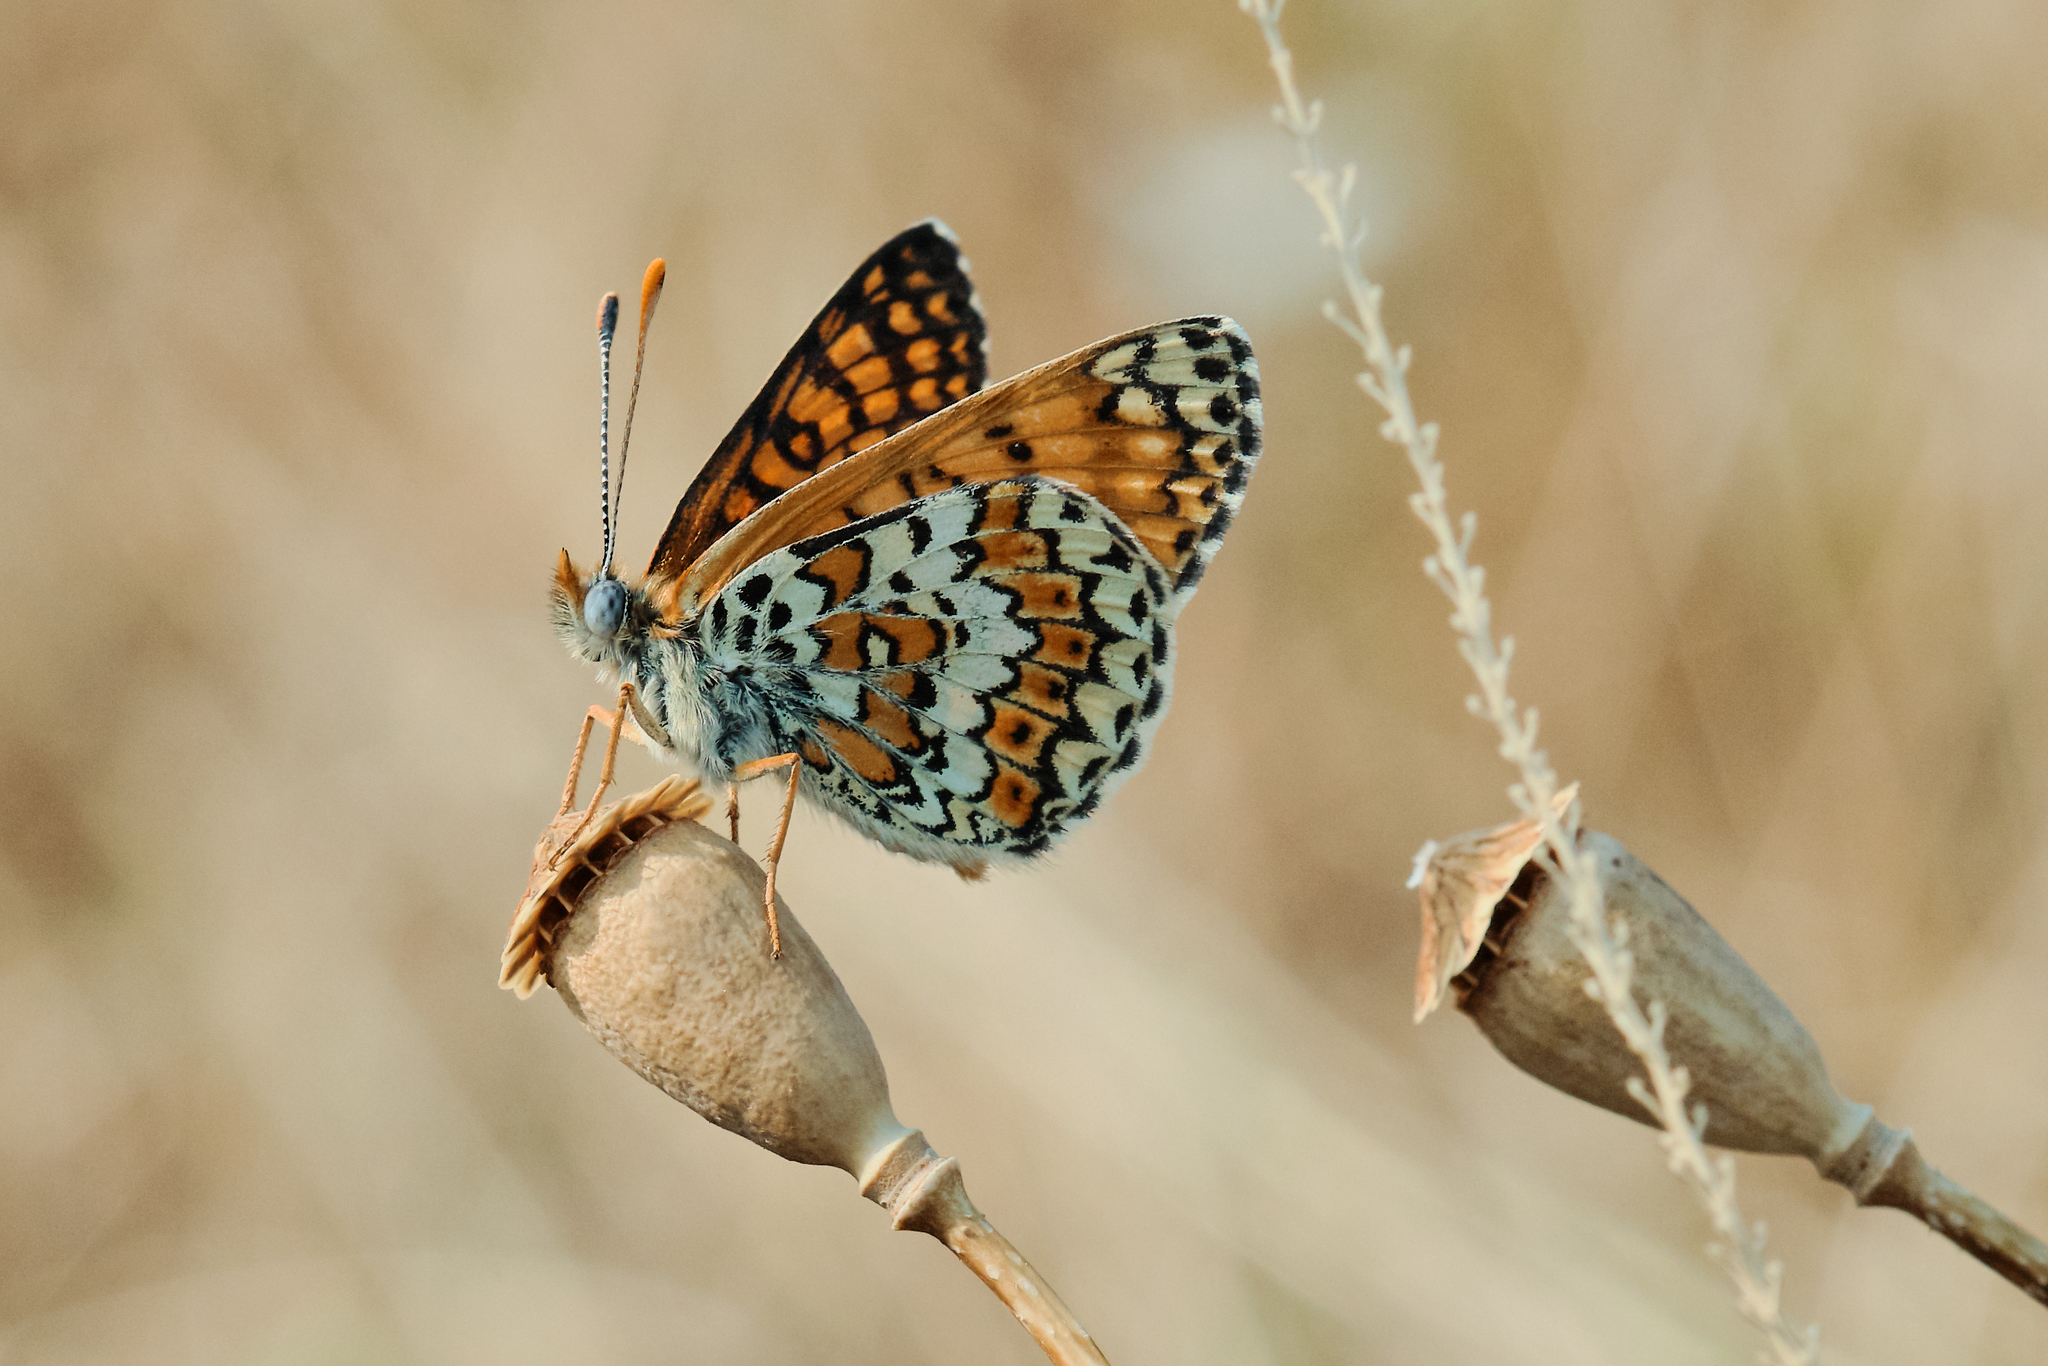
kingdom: Animalia
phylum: Arthropoda
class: Insecta
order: Lepidoptera
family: Nymphalidae
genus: Melitaea
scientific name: Melitaea cinxia
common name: Glanville fritillary
